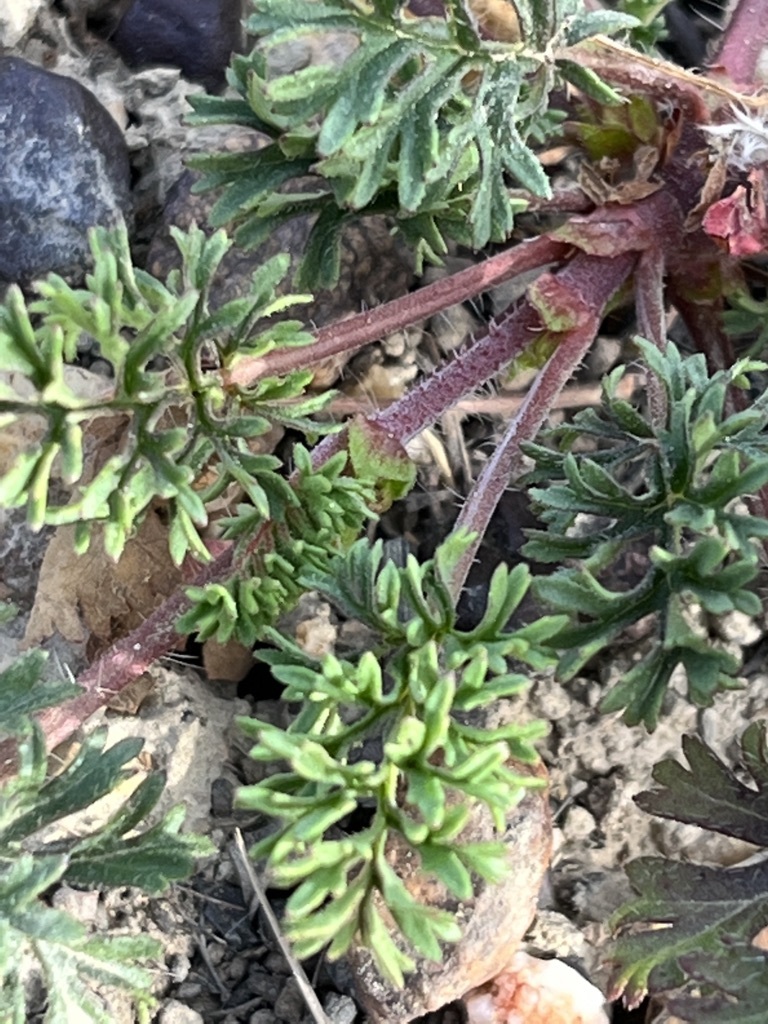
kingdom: Plantae
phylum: Tracheophyta
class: Magnoliopsida
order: Geraniales
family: Geraniaceae
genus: Pelargonium
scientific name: Pelargonium myrrhifolium
